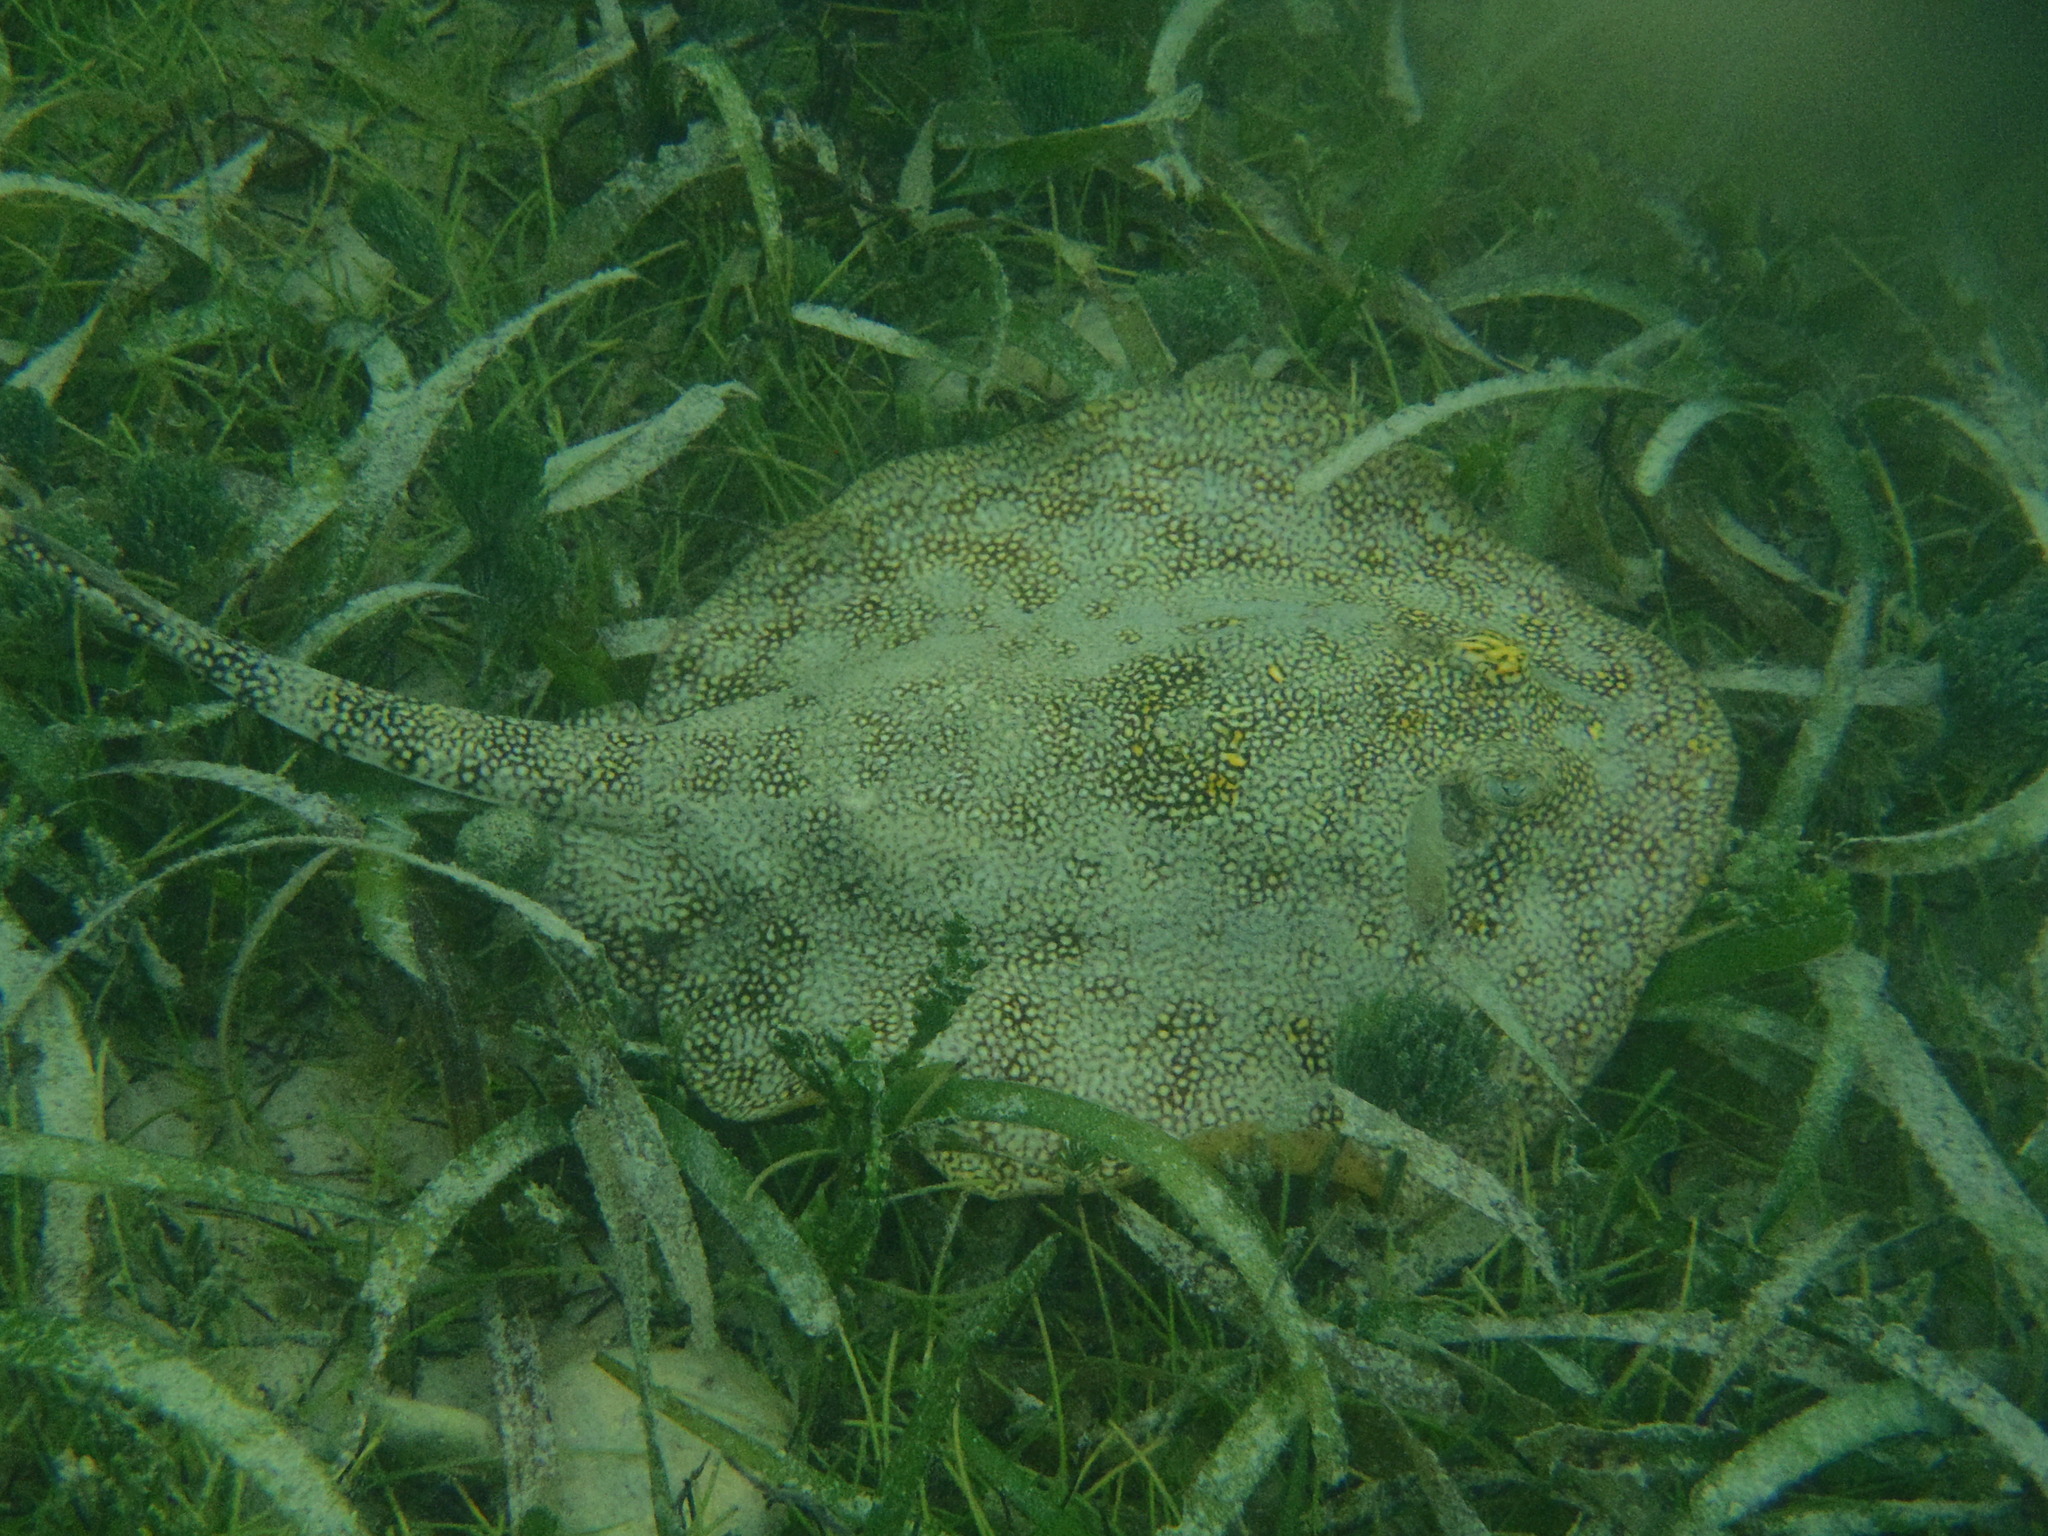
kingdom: Animalia
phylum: Chordata
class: Elasmobranchii
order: Myliobatiformes
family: Urotrygonidae
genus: Urobatis
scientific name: Urobatis jamaicensis
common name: Yellow stingray
